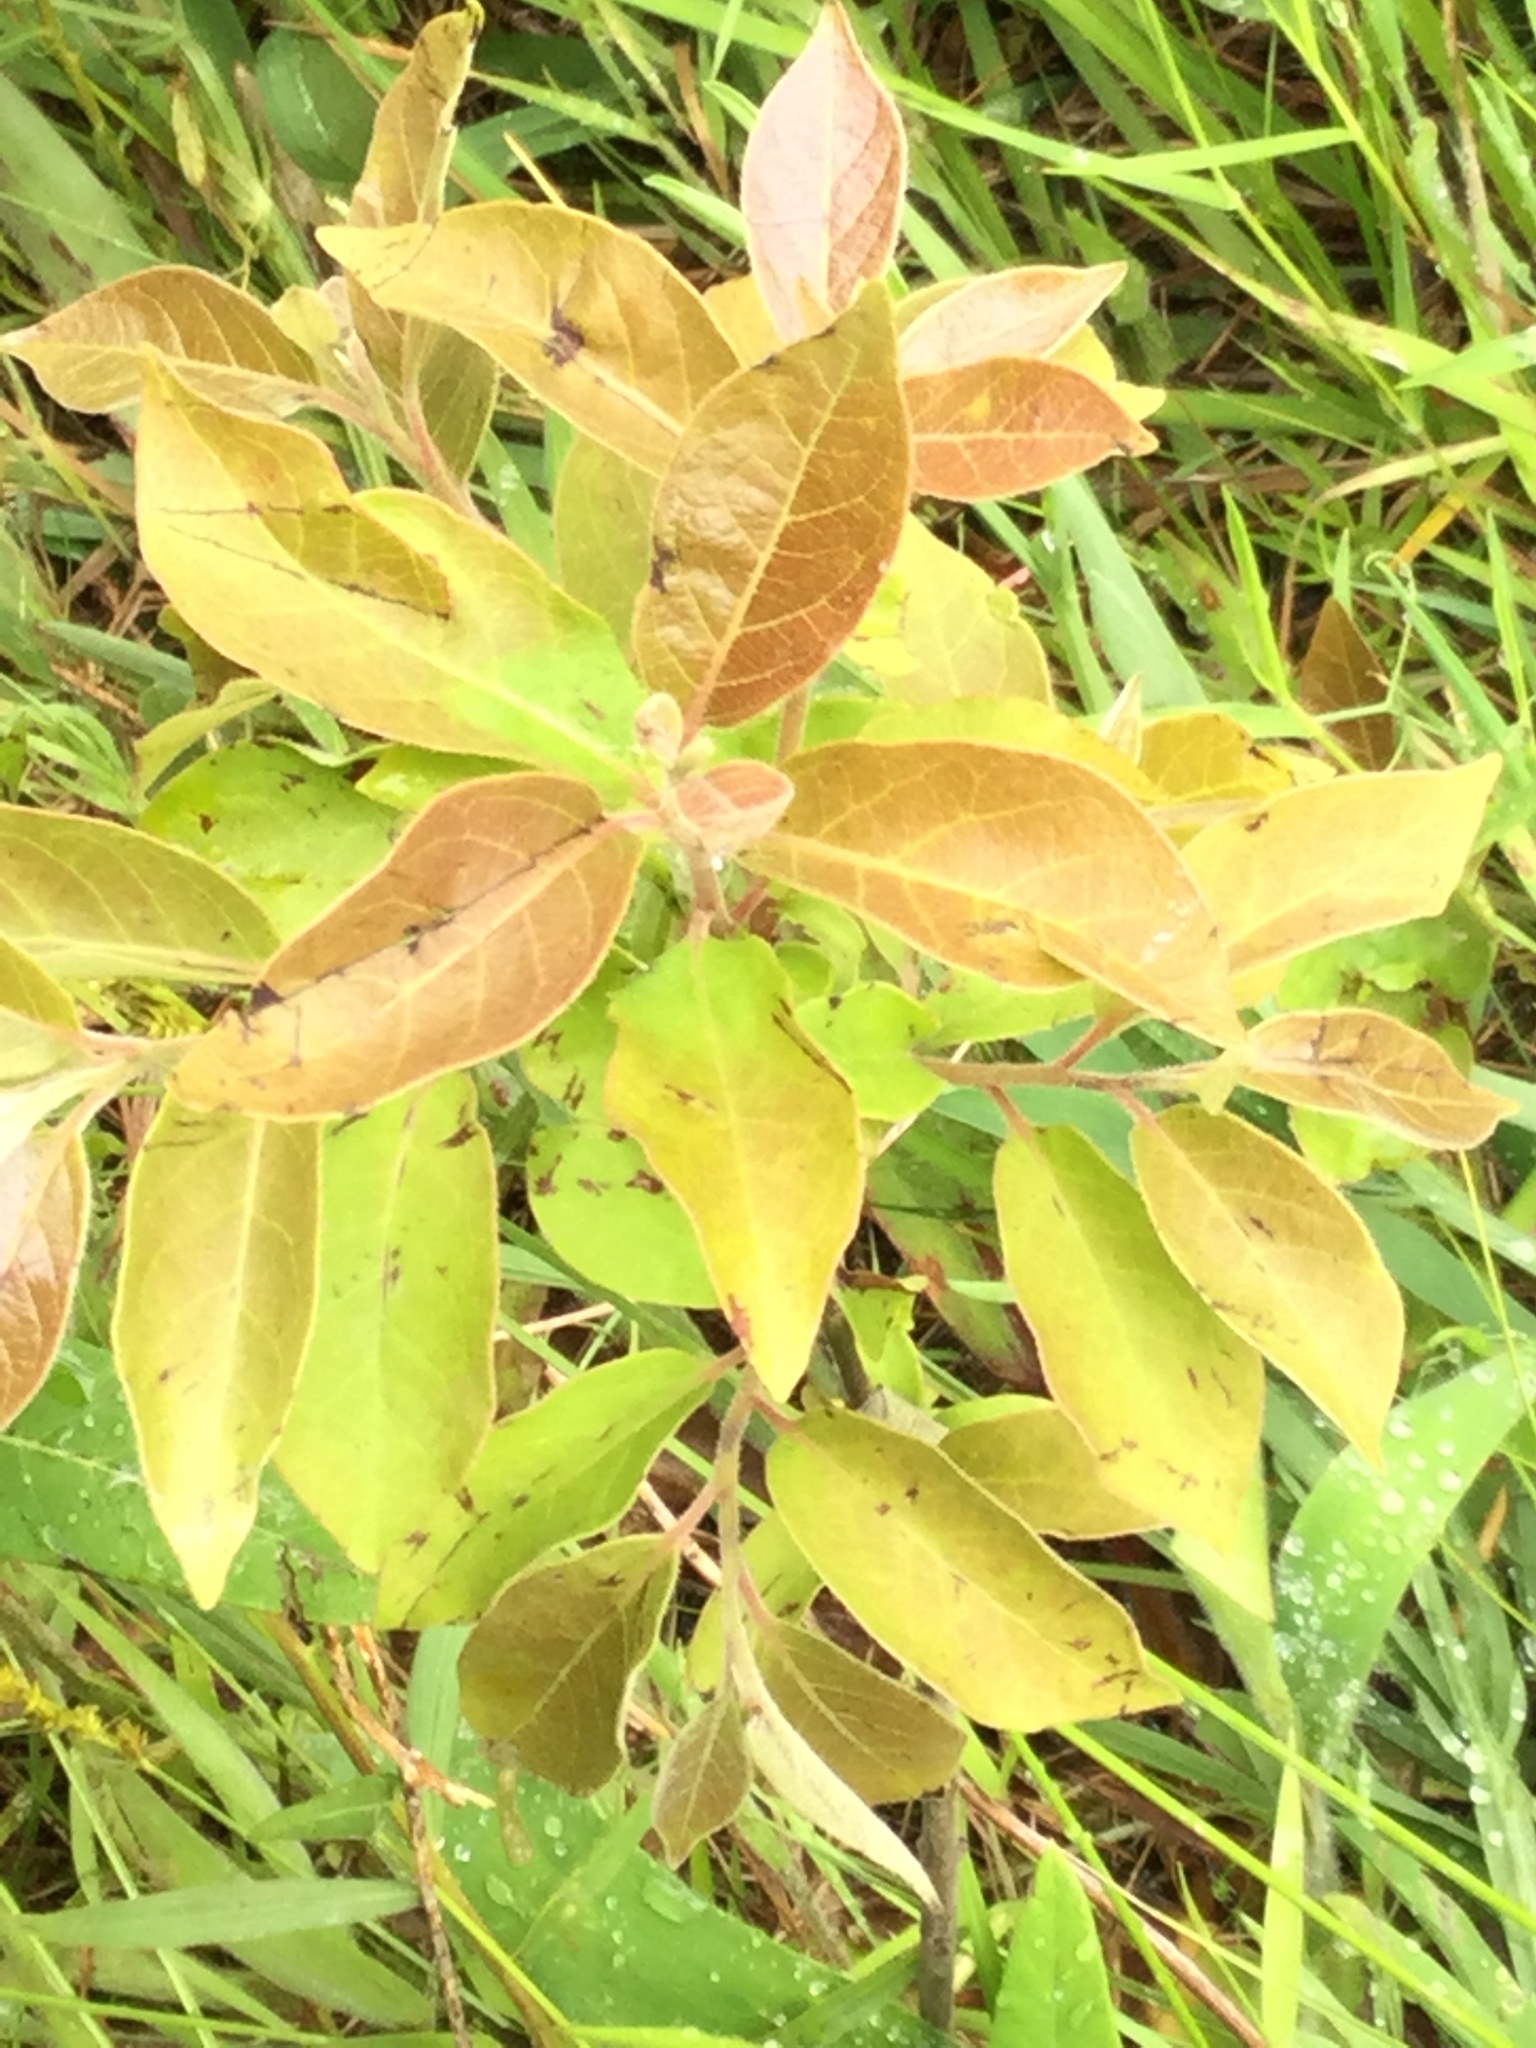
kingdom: Plantae
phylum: Tracheophyta
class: Magnoliopsida
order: Ericales
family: Ebenaceae
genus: Diospyros
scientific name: Diospyros virginiana
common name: Persimmon
